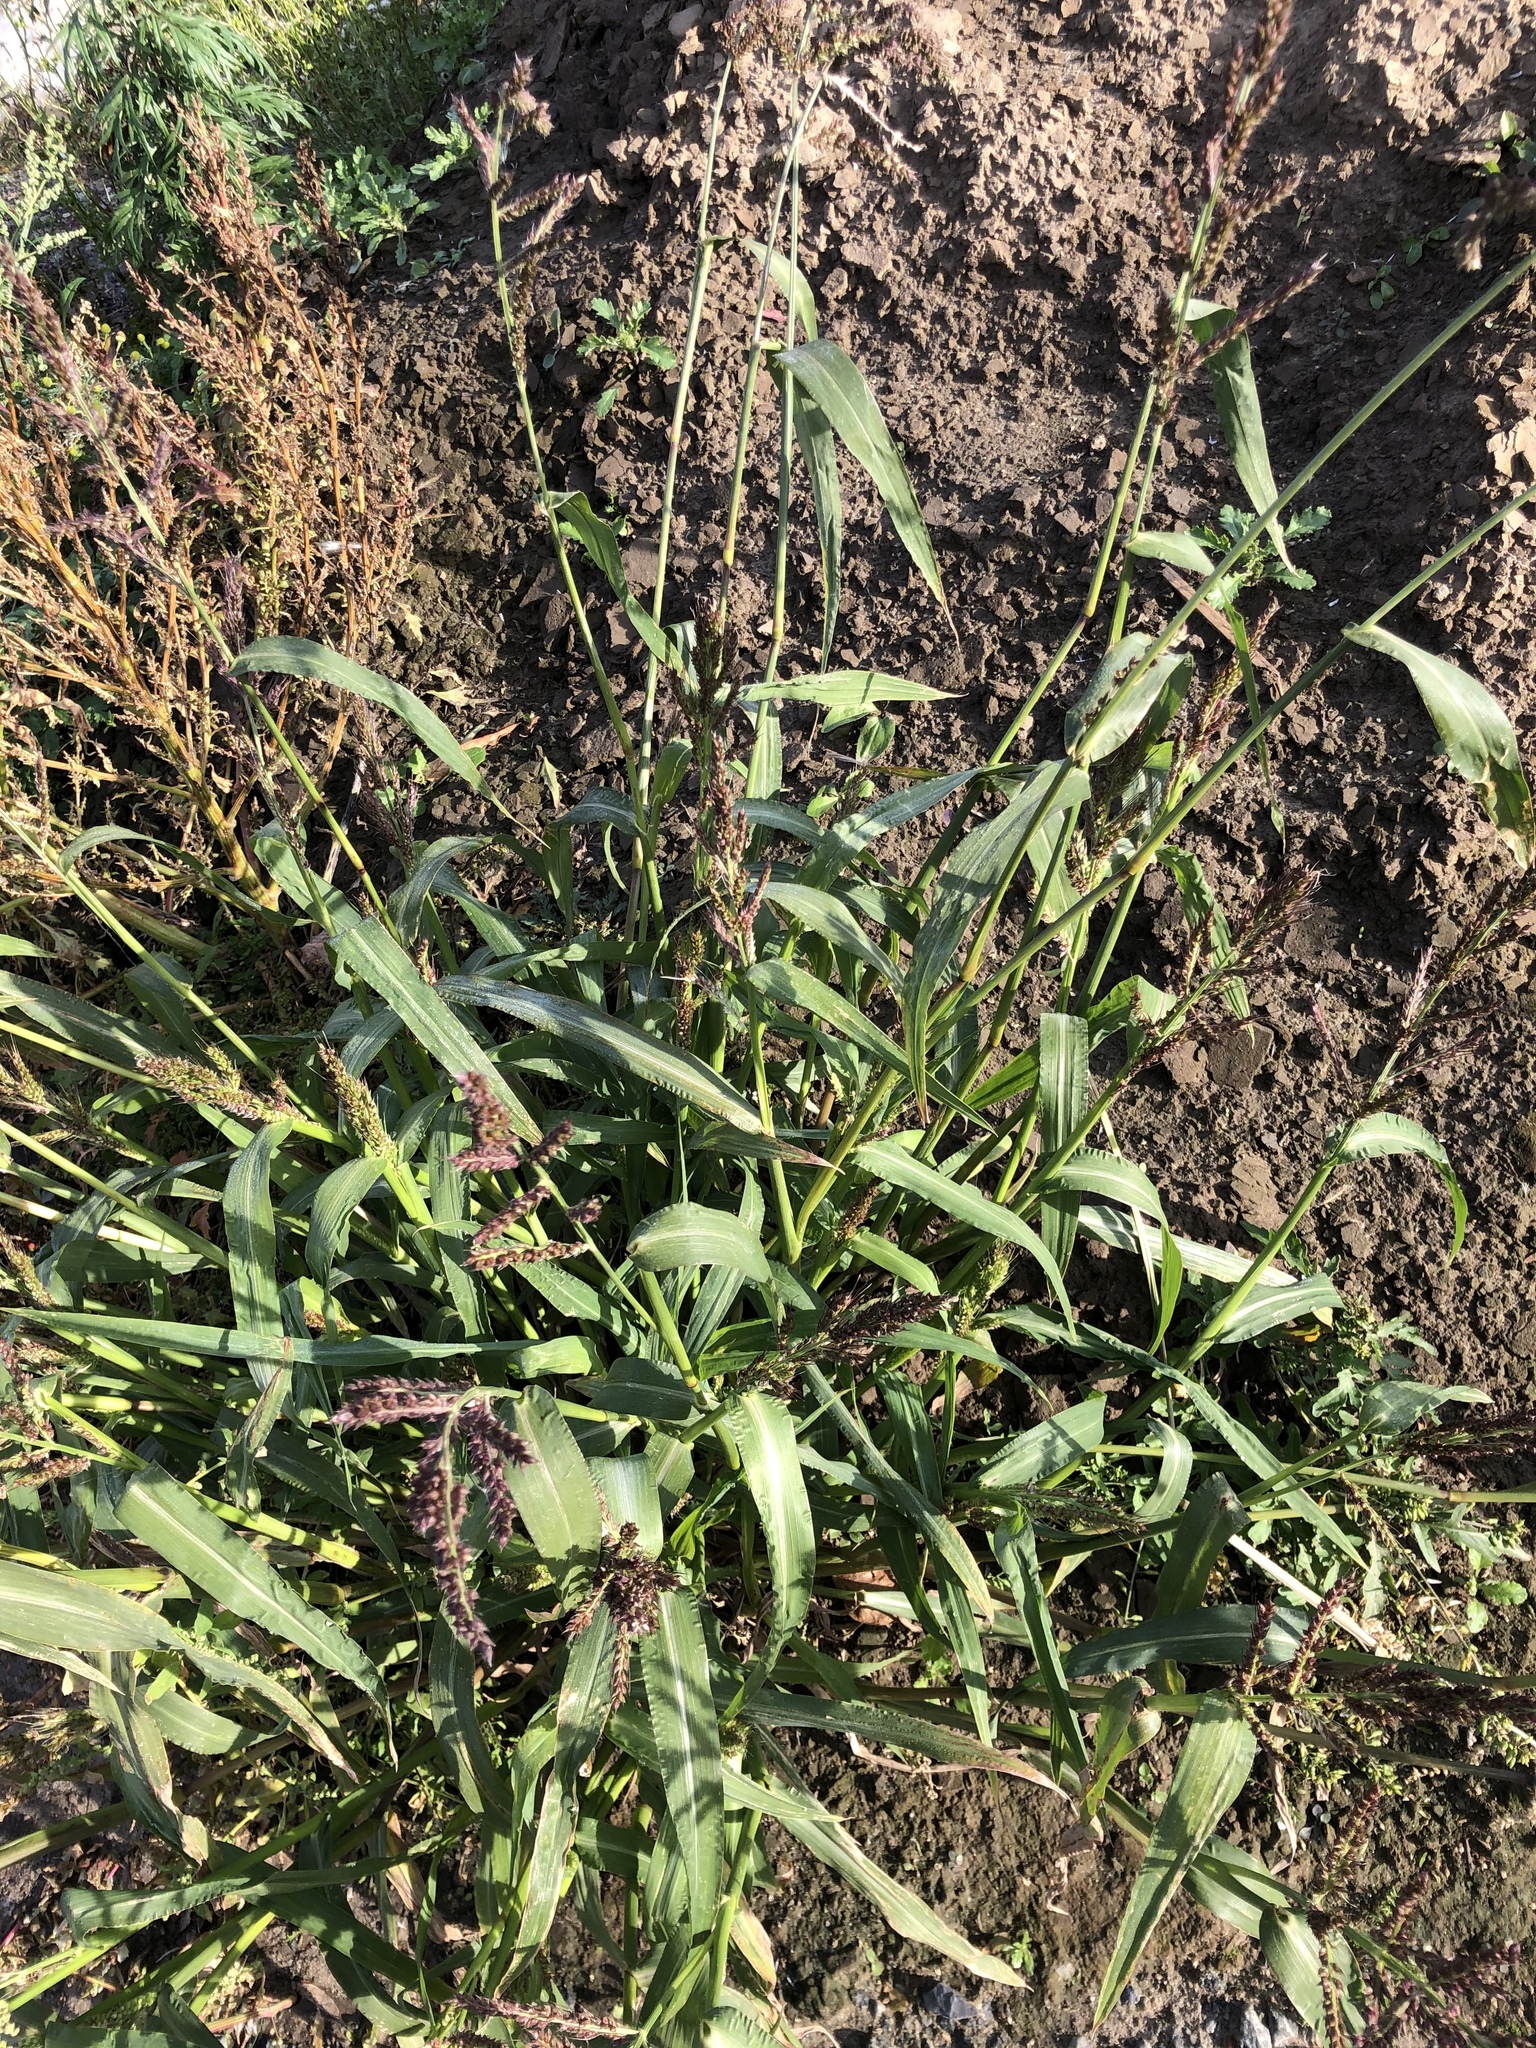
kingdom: Plantae
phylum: Tracheophyta
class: Liliopsida
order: Poales
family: Poaceae
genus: Echinochloa
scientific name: Echinochloa crus-galli
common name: Cockspur
